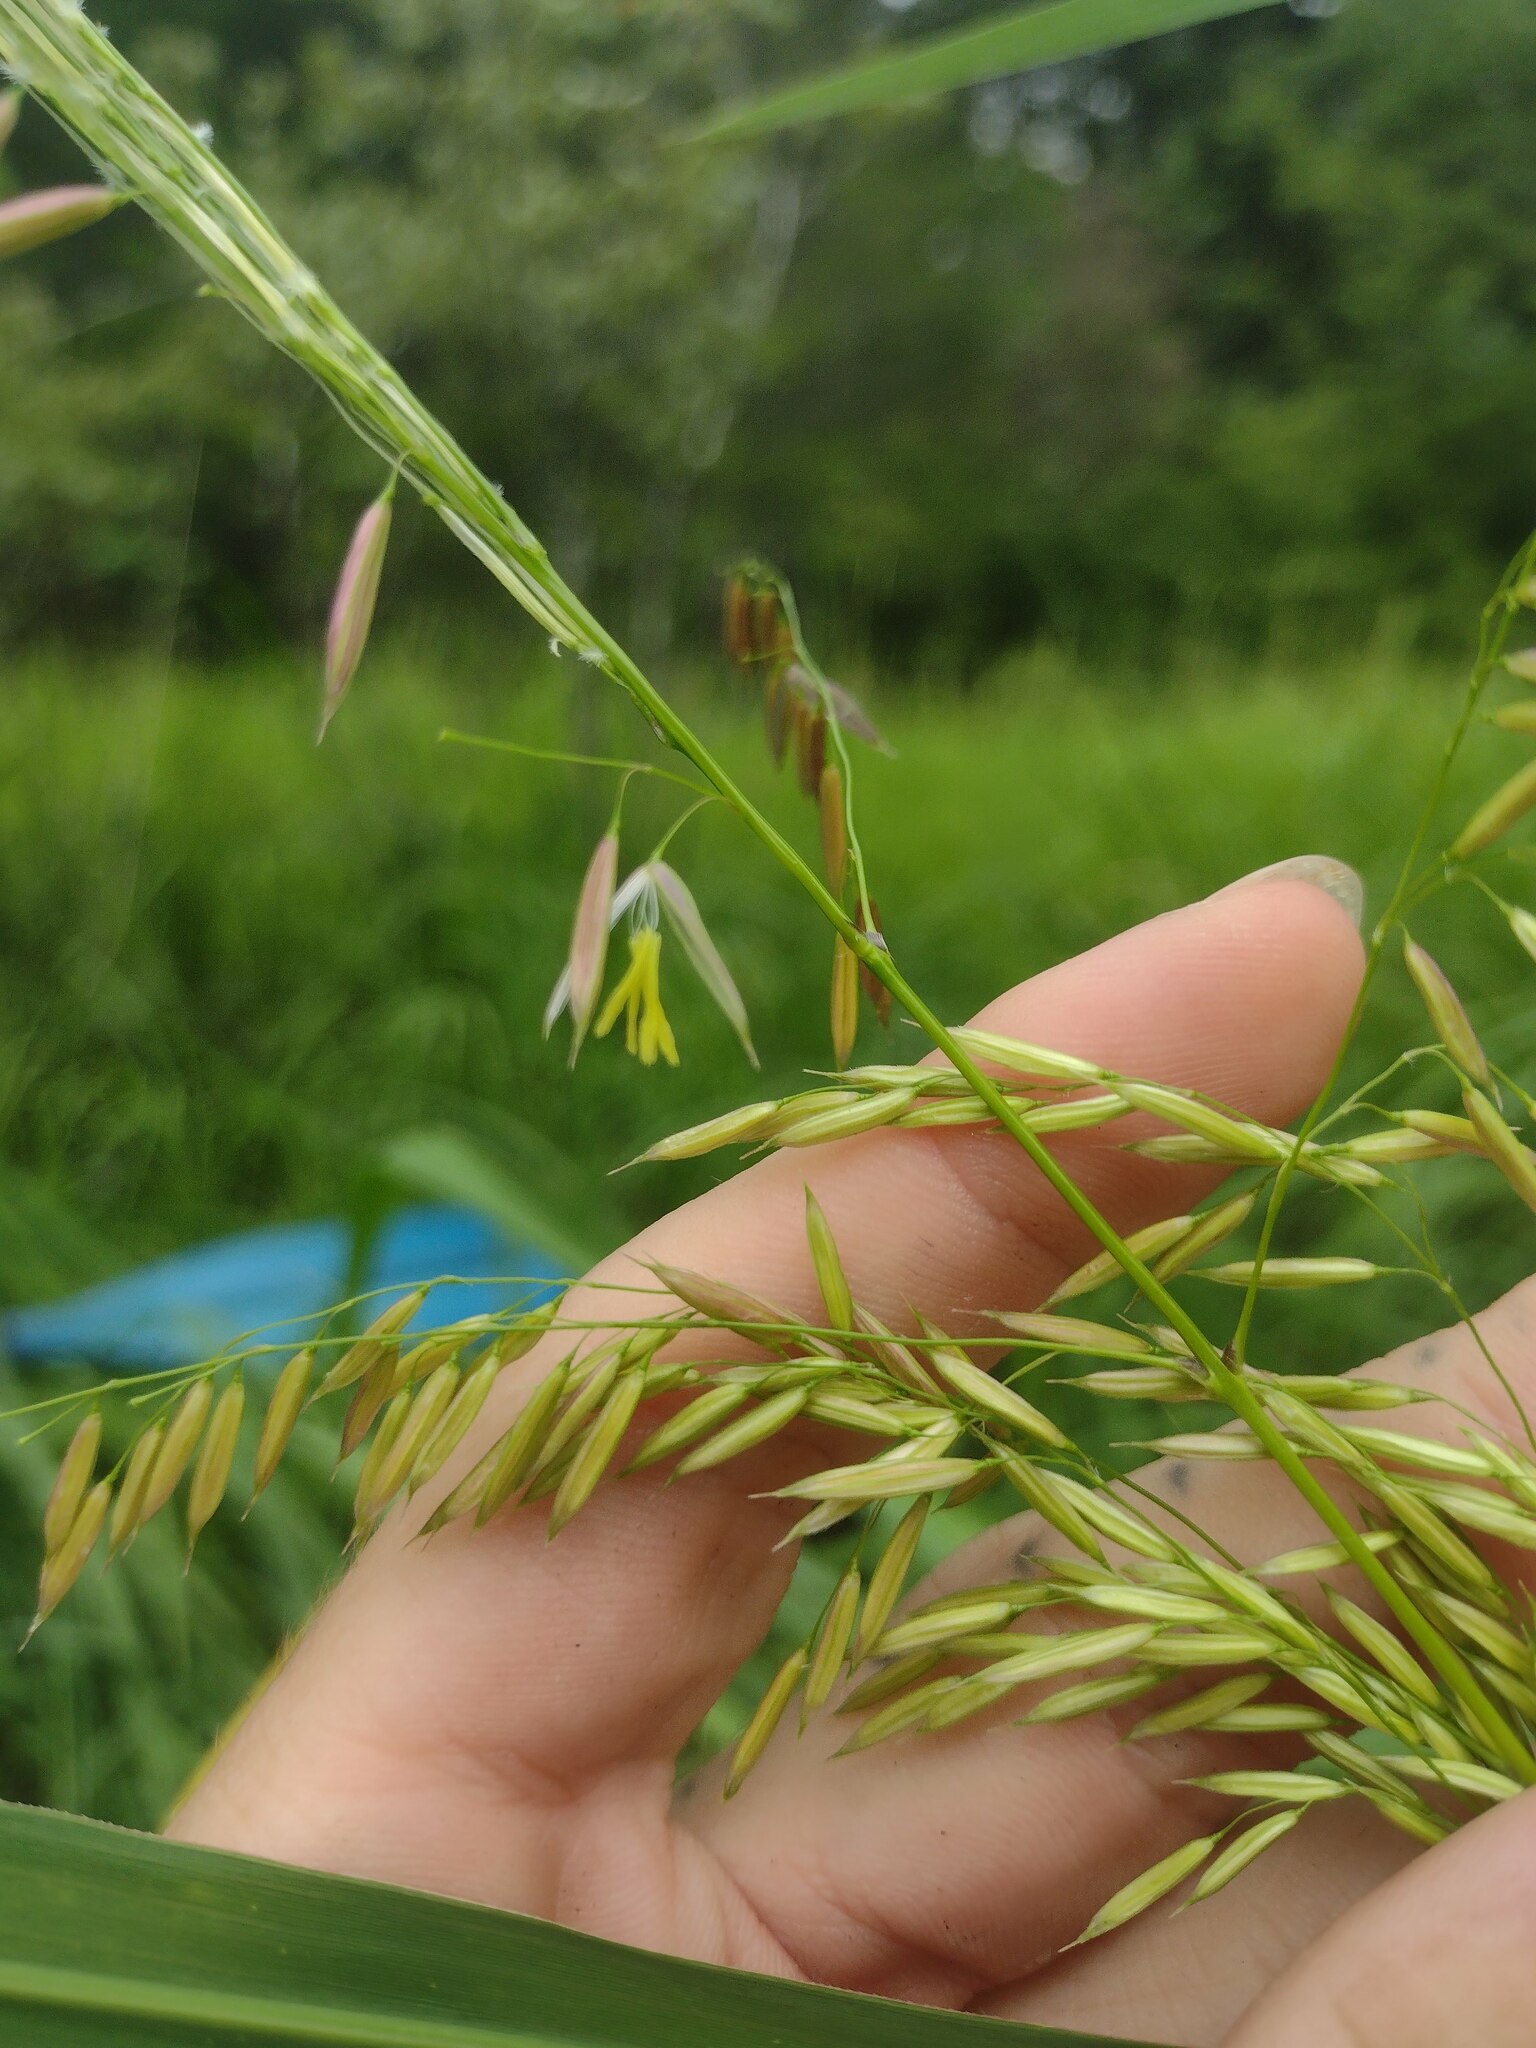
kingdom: Plantae
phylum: Tracheophyta
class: Liliopsida
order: Poales
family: Poaceae
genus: Zizania
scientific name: Zizania aquatica
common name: Annual wildrice
